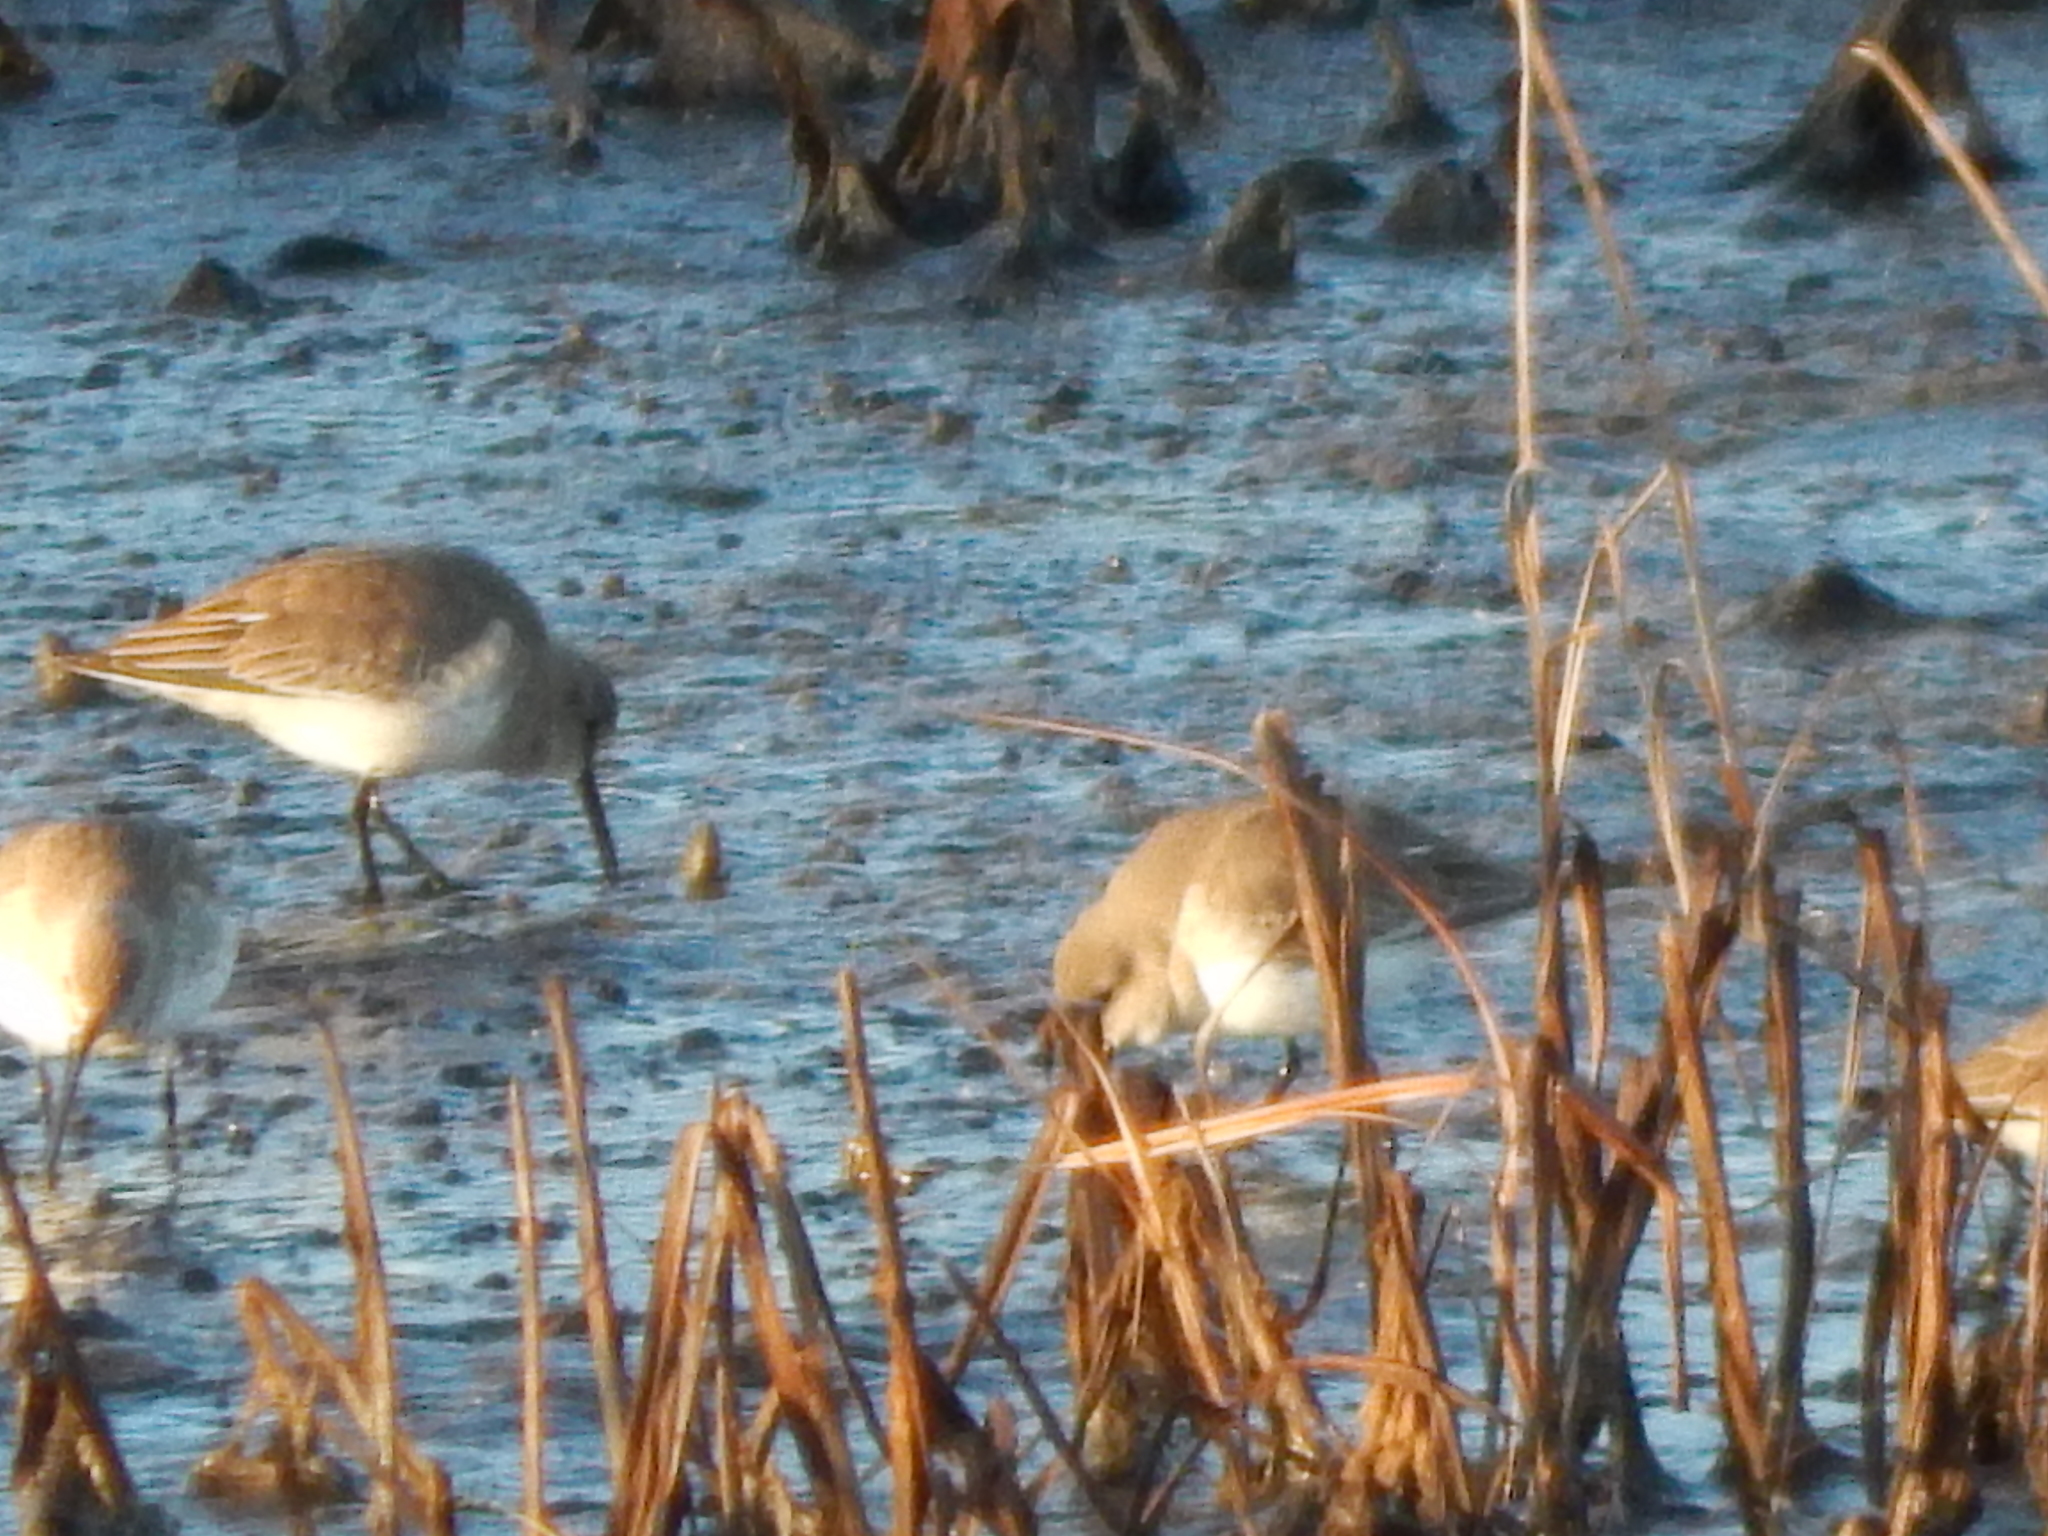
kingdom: Animalia
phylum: Chordata
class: Aves
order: Charadriiformes
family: Scolopacidae
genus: Calidris
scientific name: Calidris alpina
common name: Dunlin
